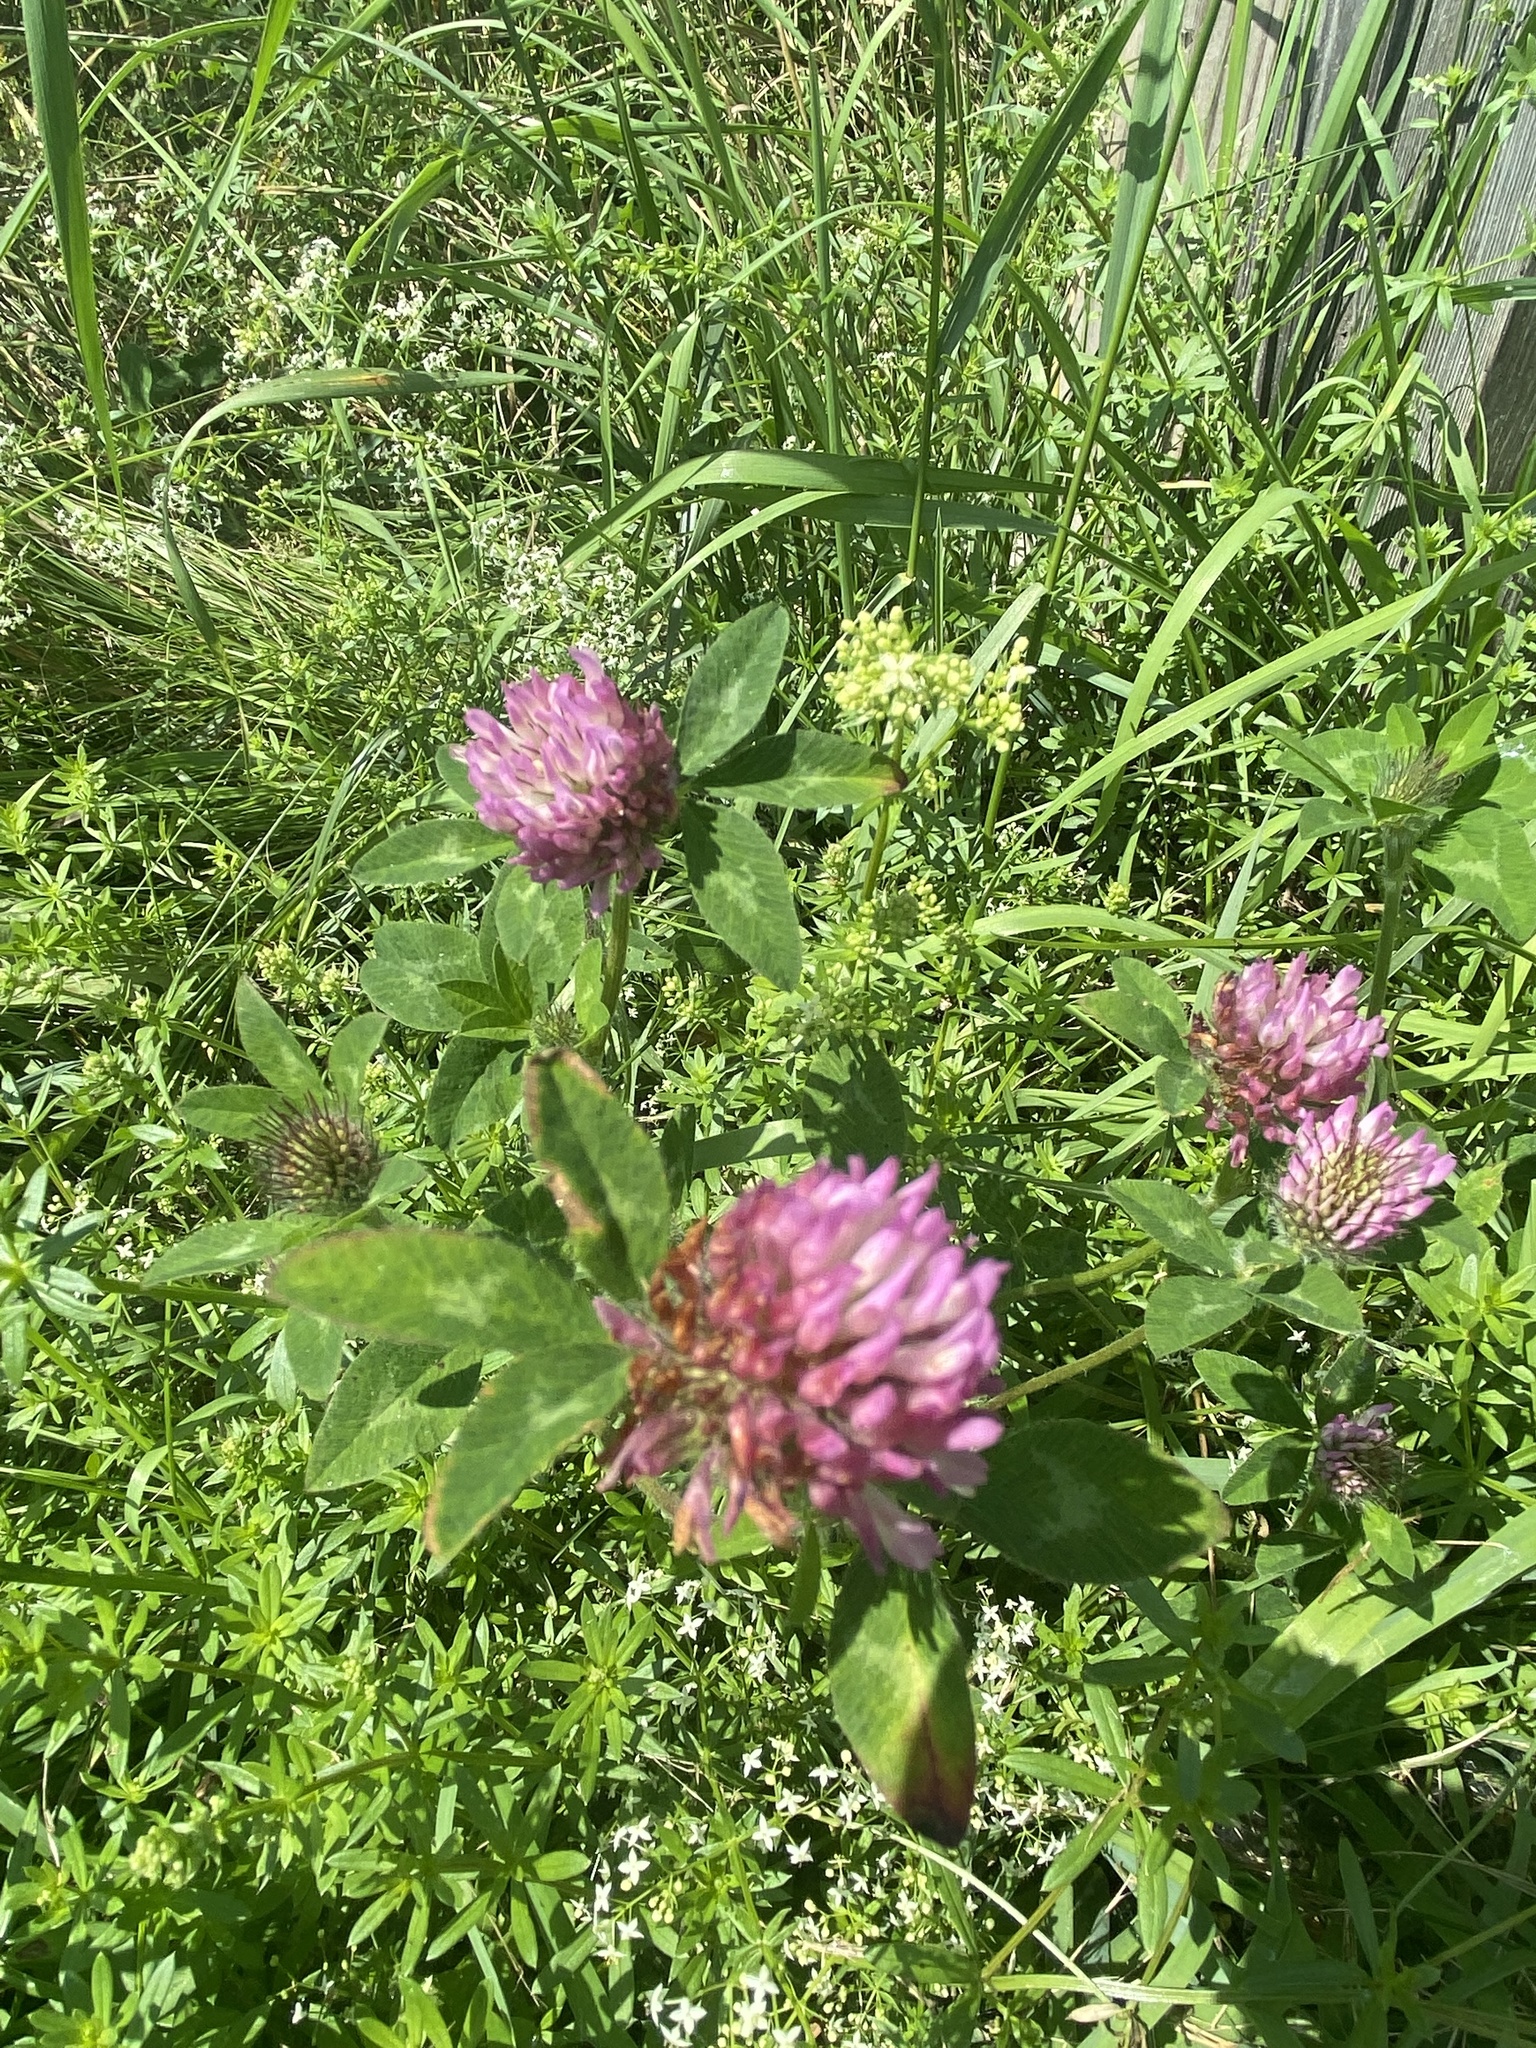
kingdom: Plantae
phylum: Tracheophyta
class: Magnoliopsida
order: Fabales
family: Fabaceae
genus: Trifolium
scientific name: Trifolium pratense
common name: Red clover
